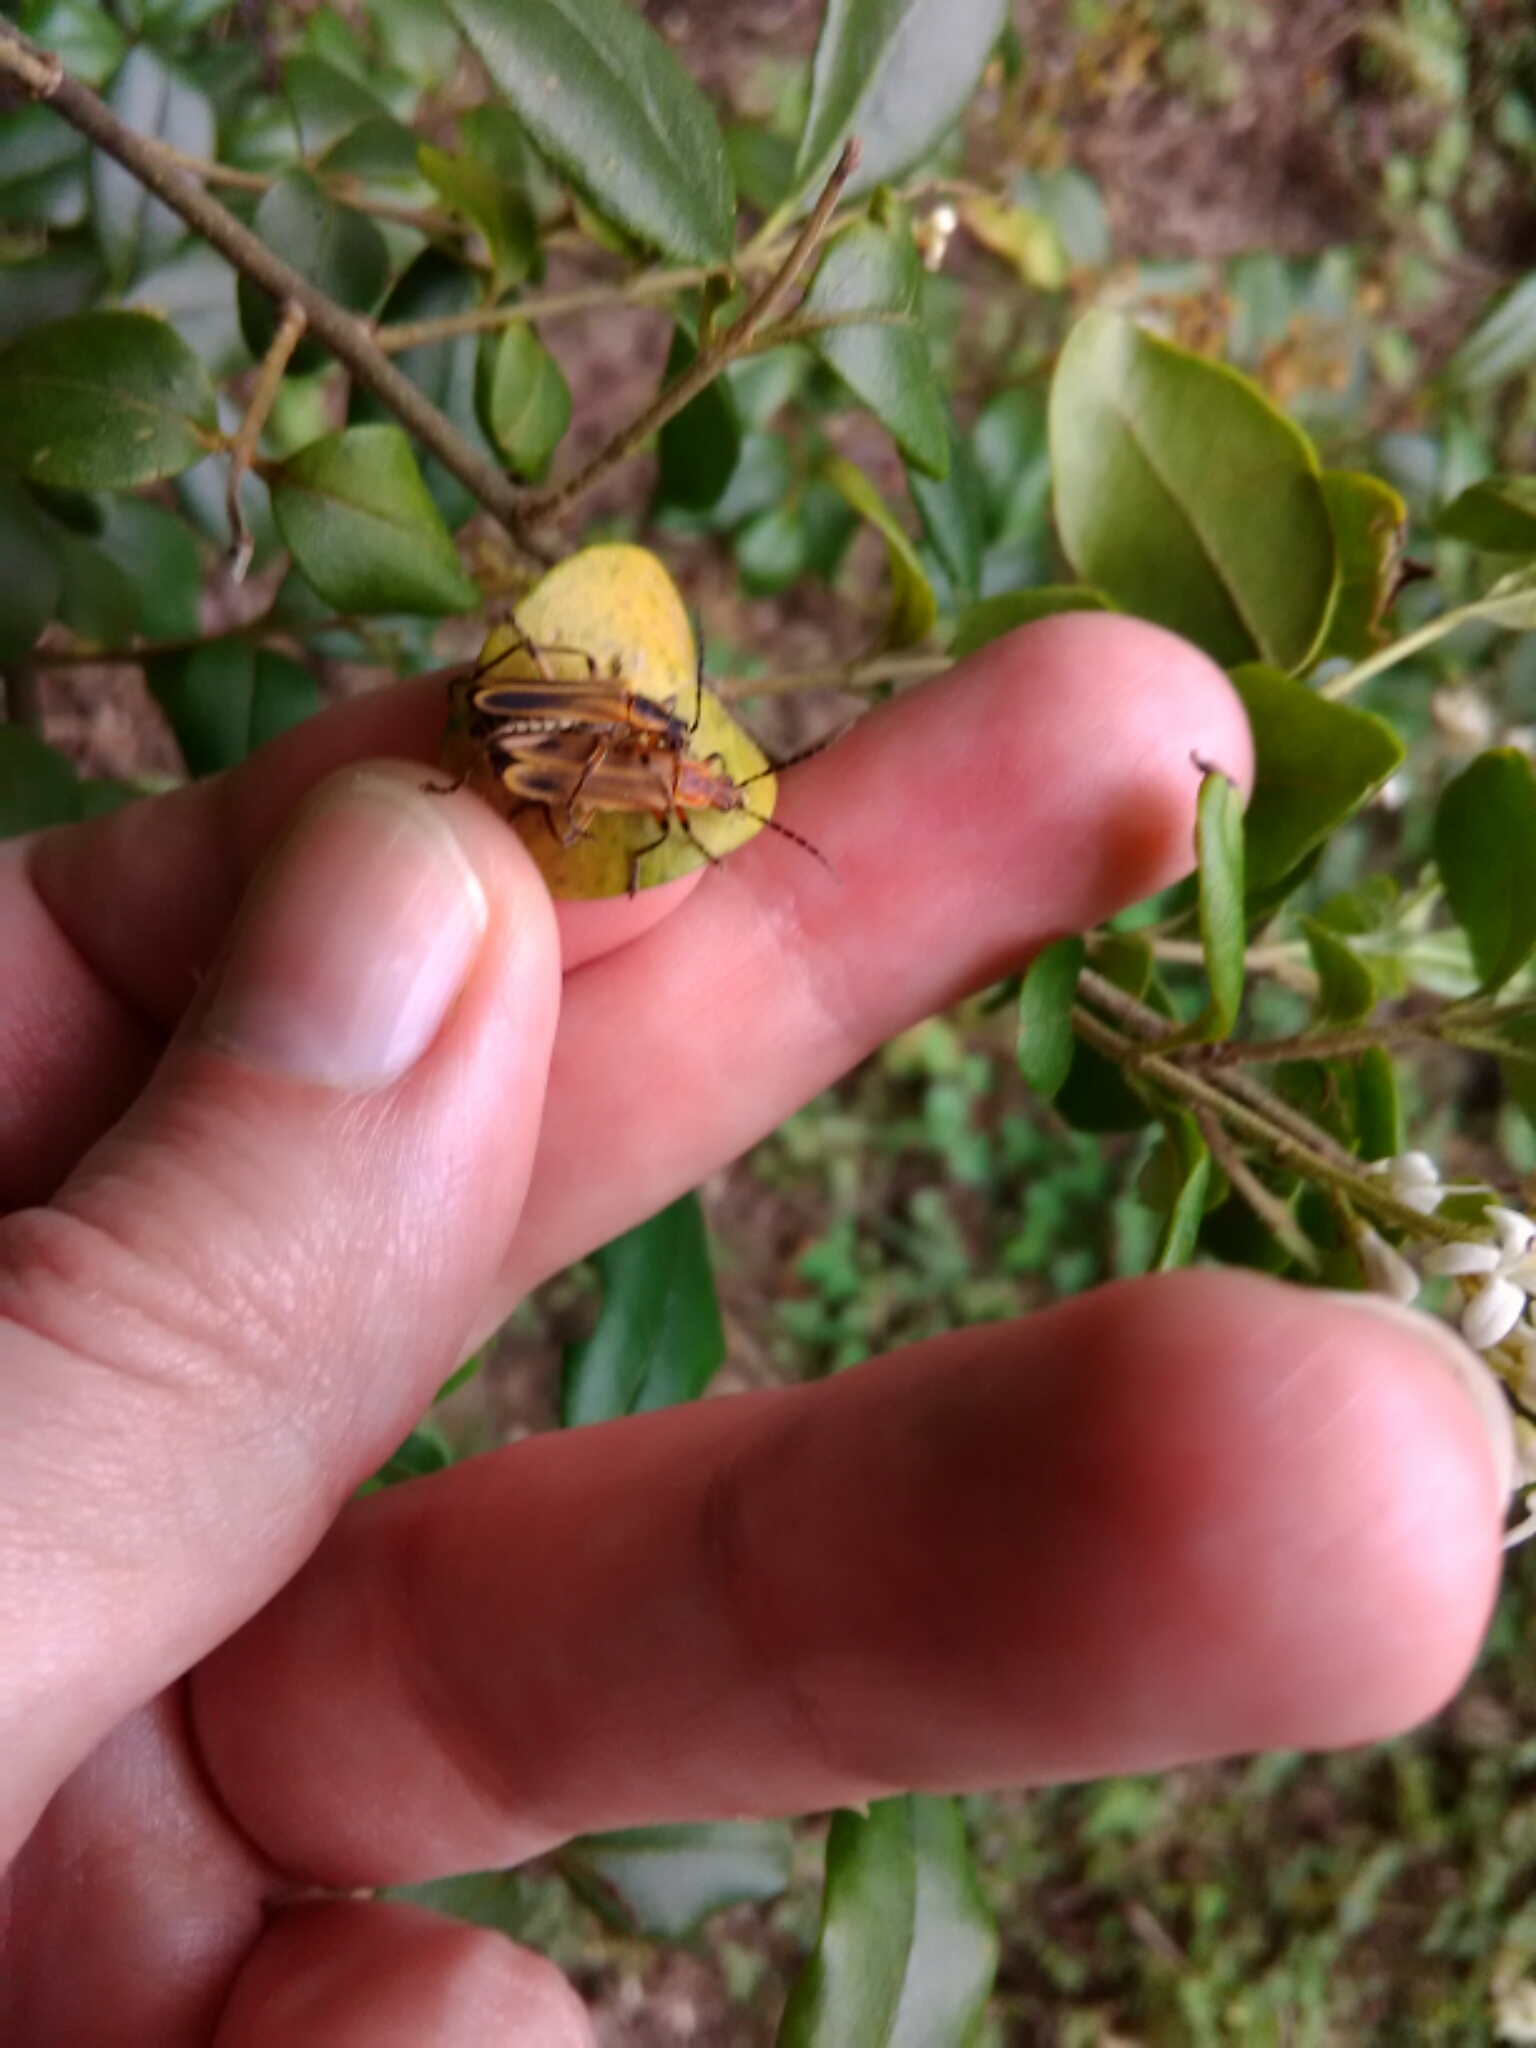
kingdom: Animalia
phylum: Arthropoda
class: Insecta
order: Coleoptera
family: Cantharidae
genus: Chauliognathus
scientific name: Chauliognathus marginatus
